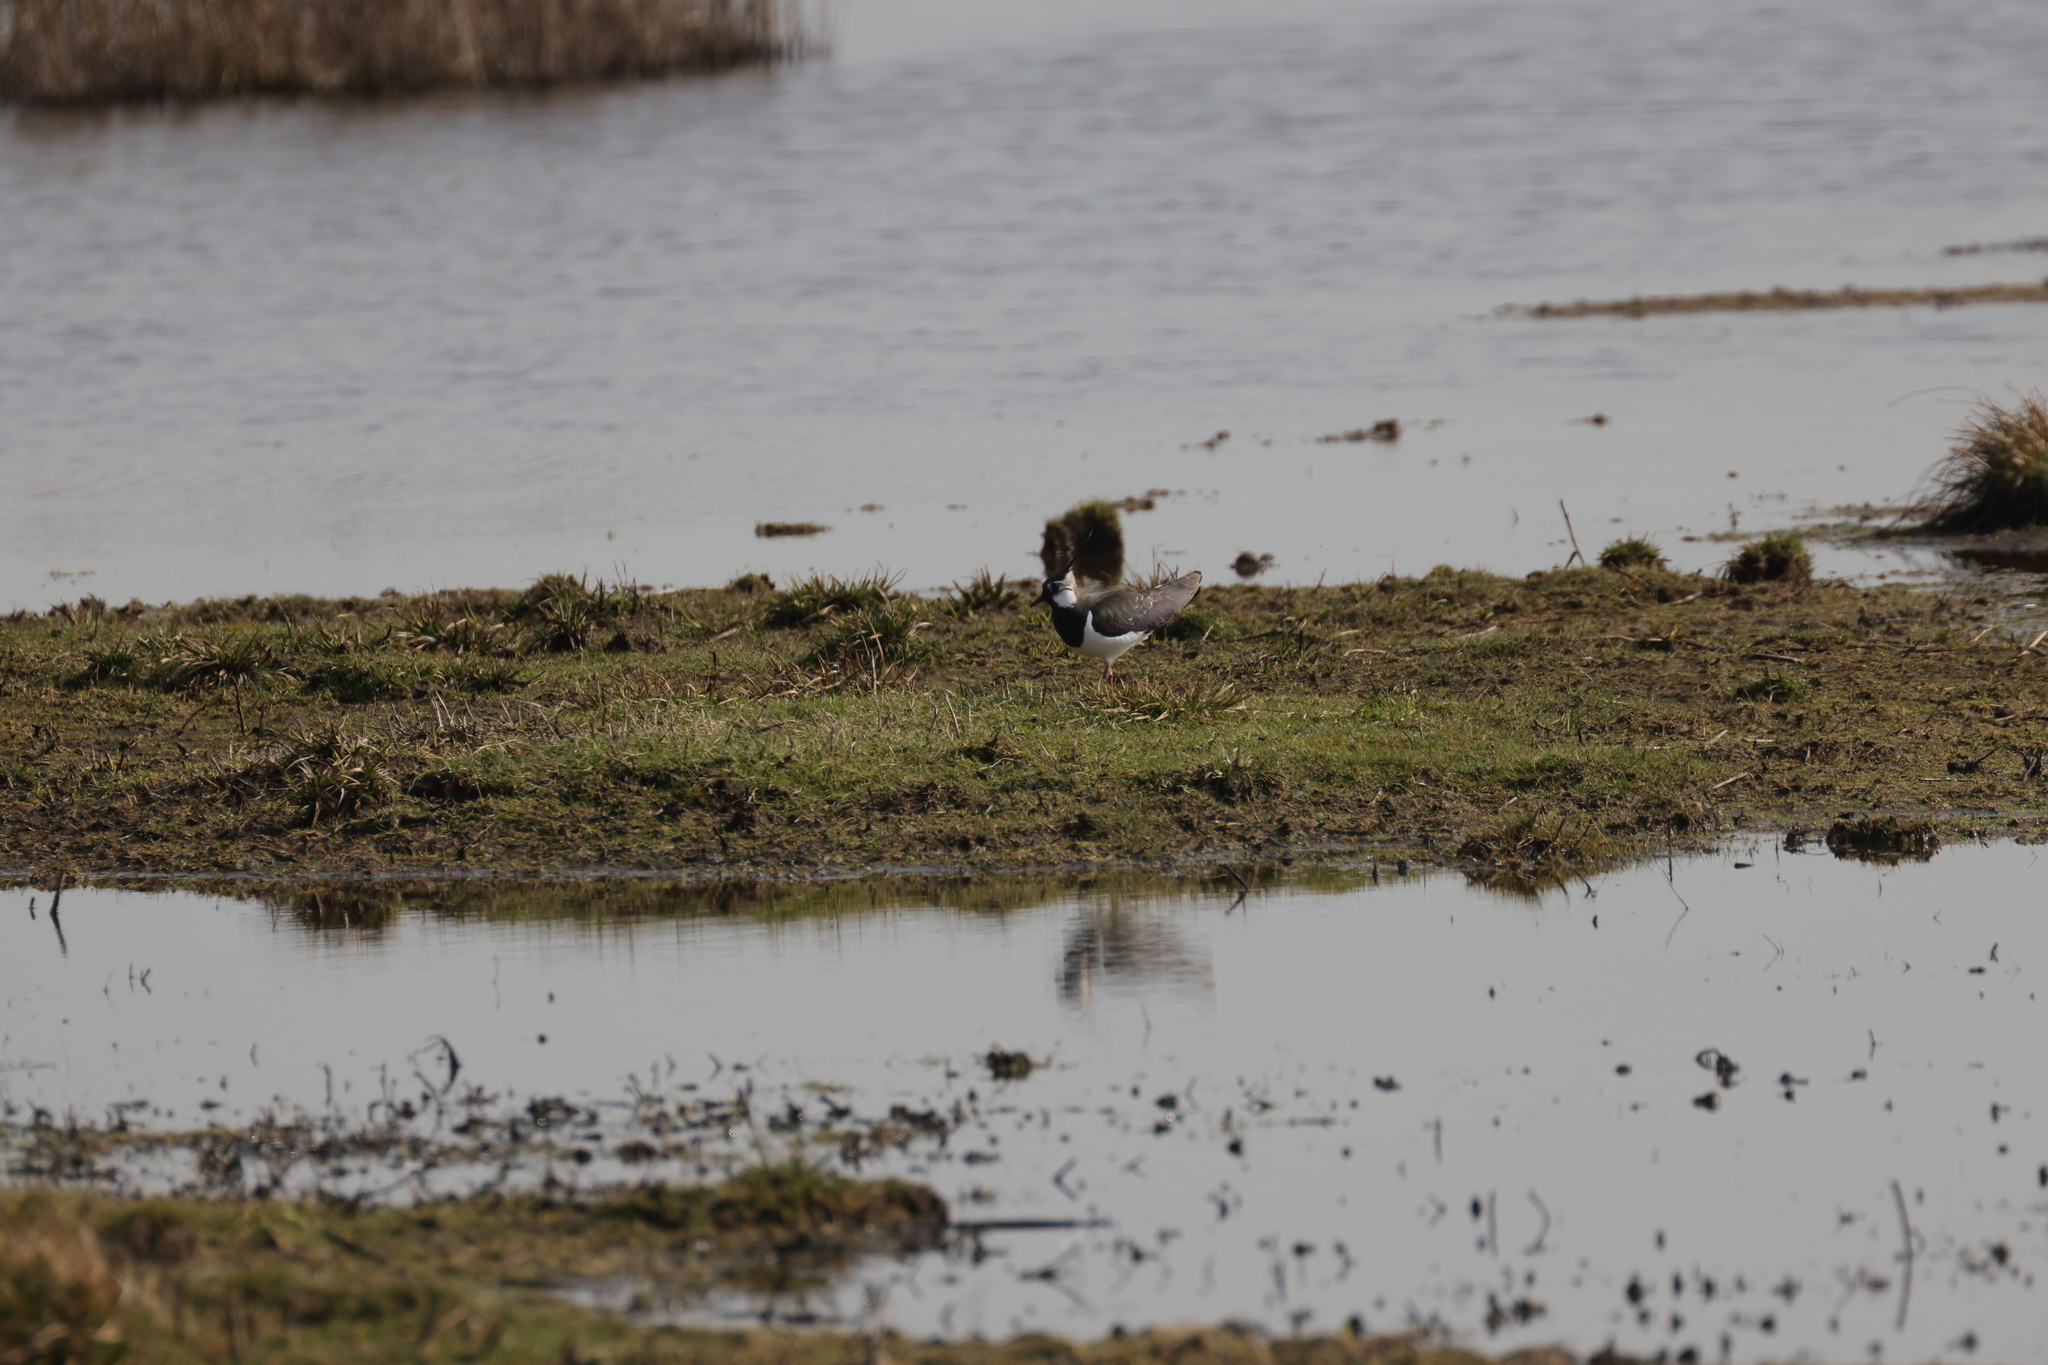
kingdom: Animalia
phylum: Chordata
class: Aves
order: Charadriiformes
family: Charadriidae
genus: Vanellus
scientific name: Vanellus vanellus
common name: Northern lapwing
